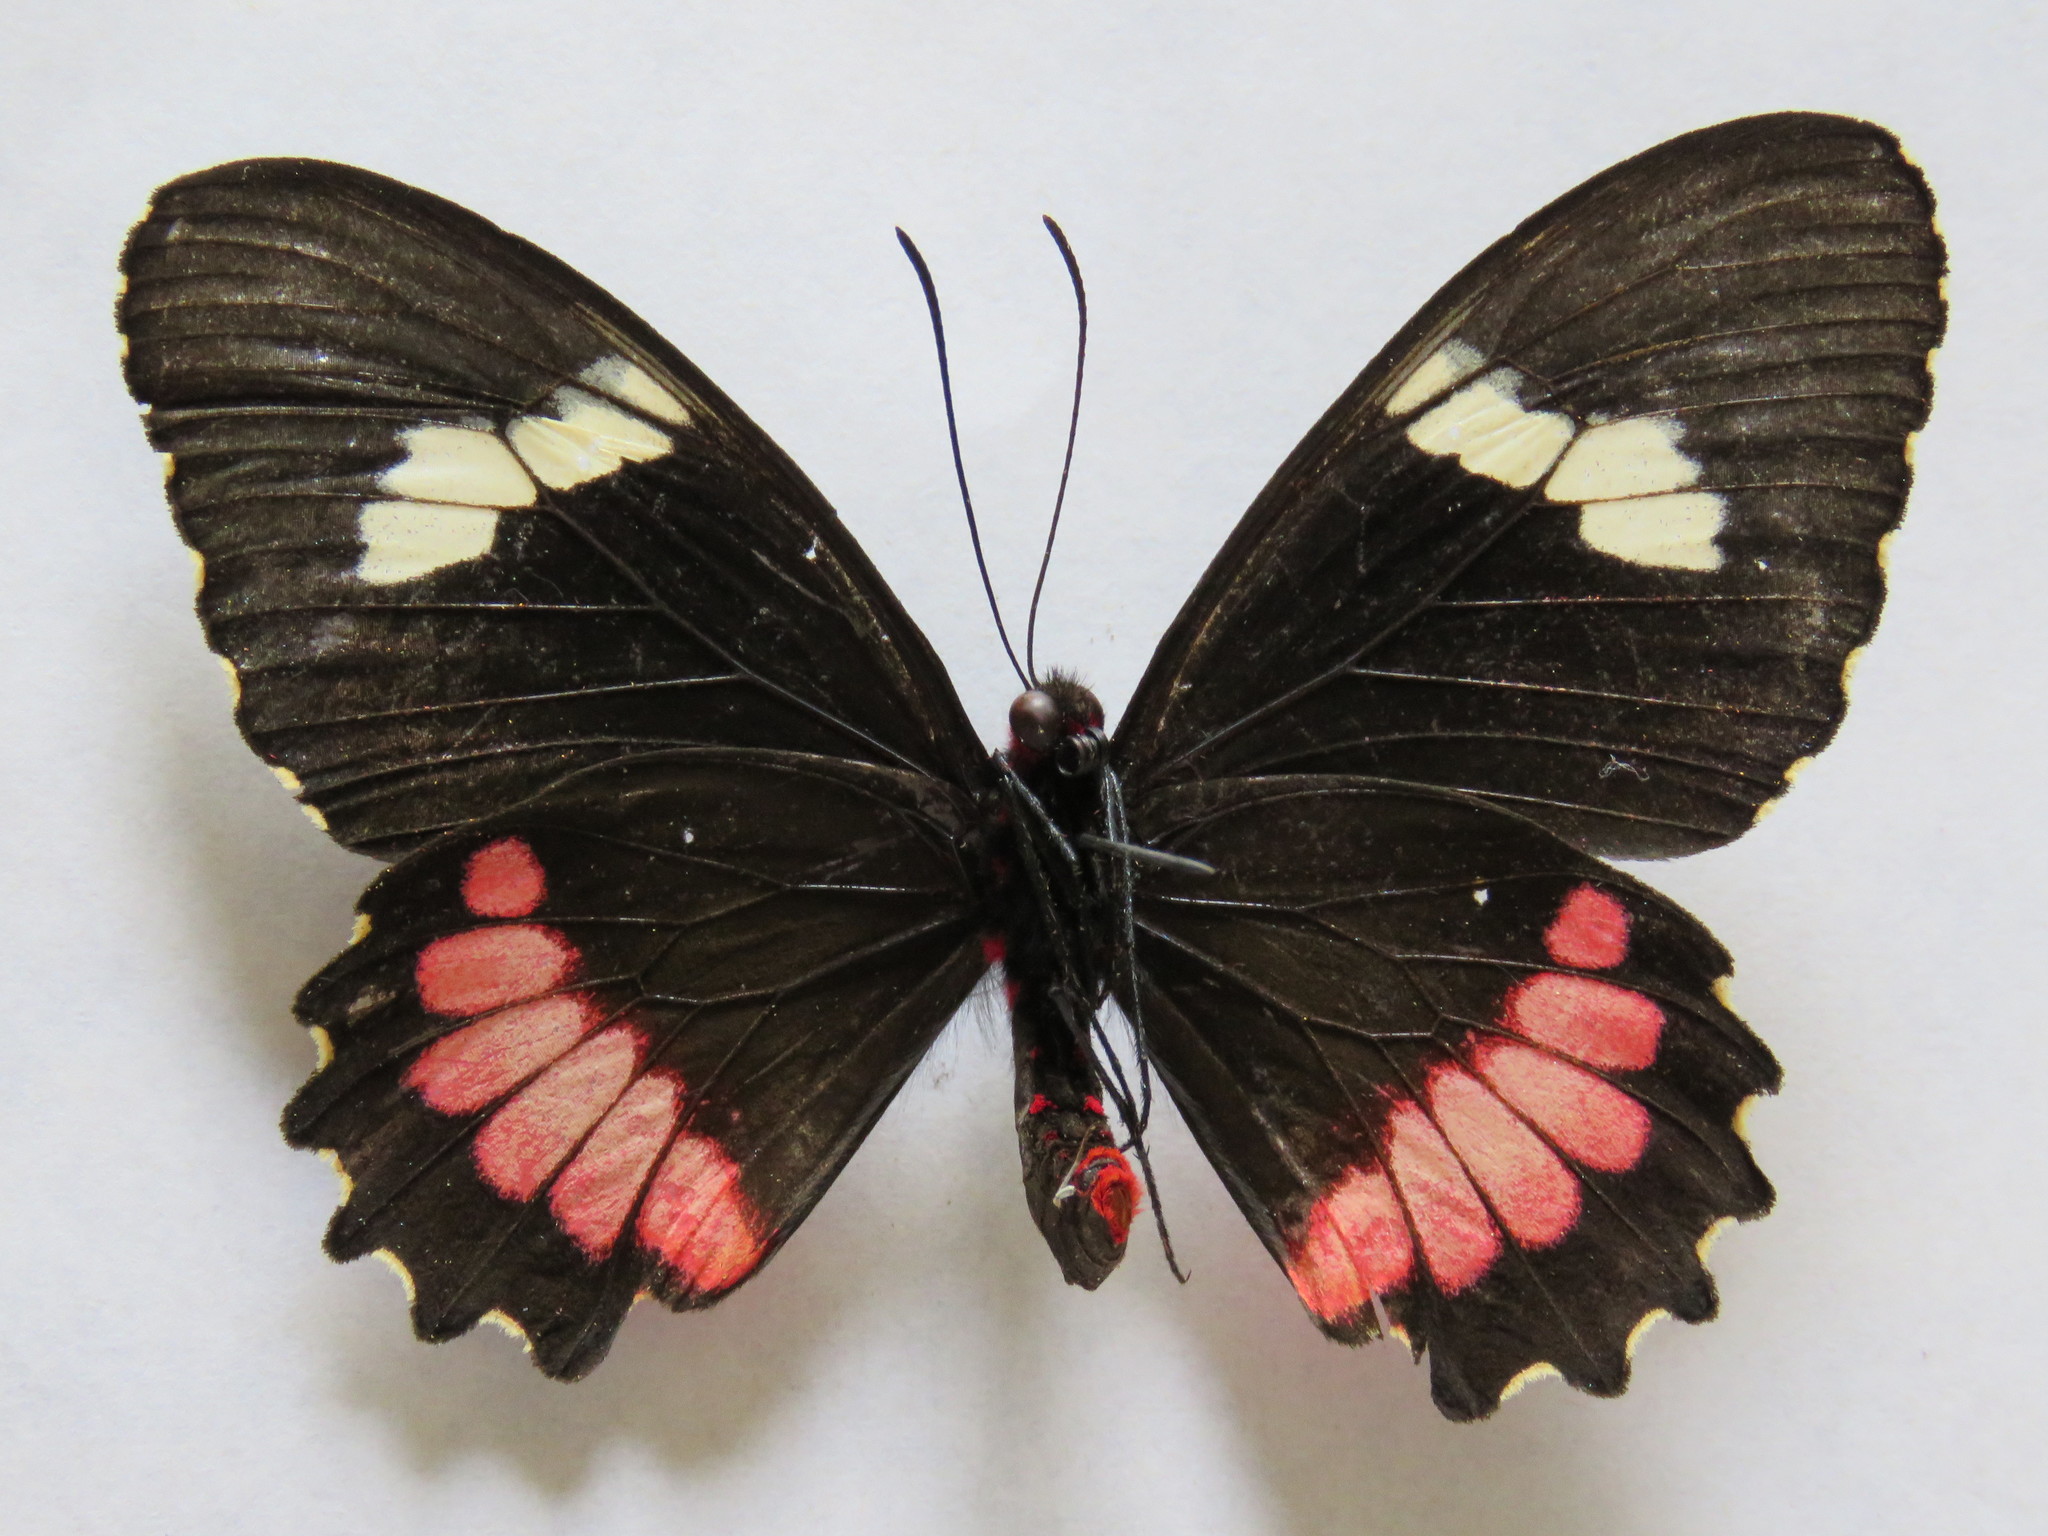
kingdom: Animalia
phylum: Arthropoda
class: Insecta
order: Lepidoptera
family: Papilionidae
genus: Parides
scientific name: Parides iphidamas
